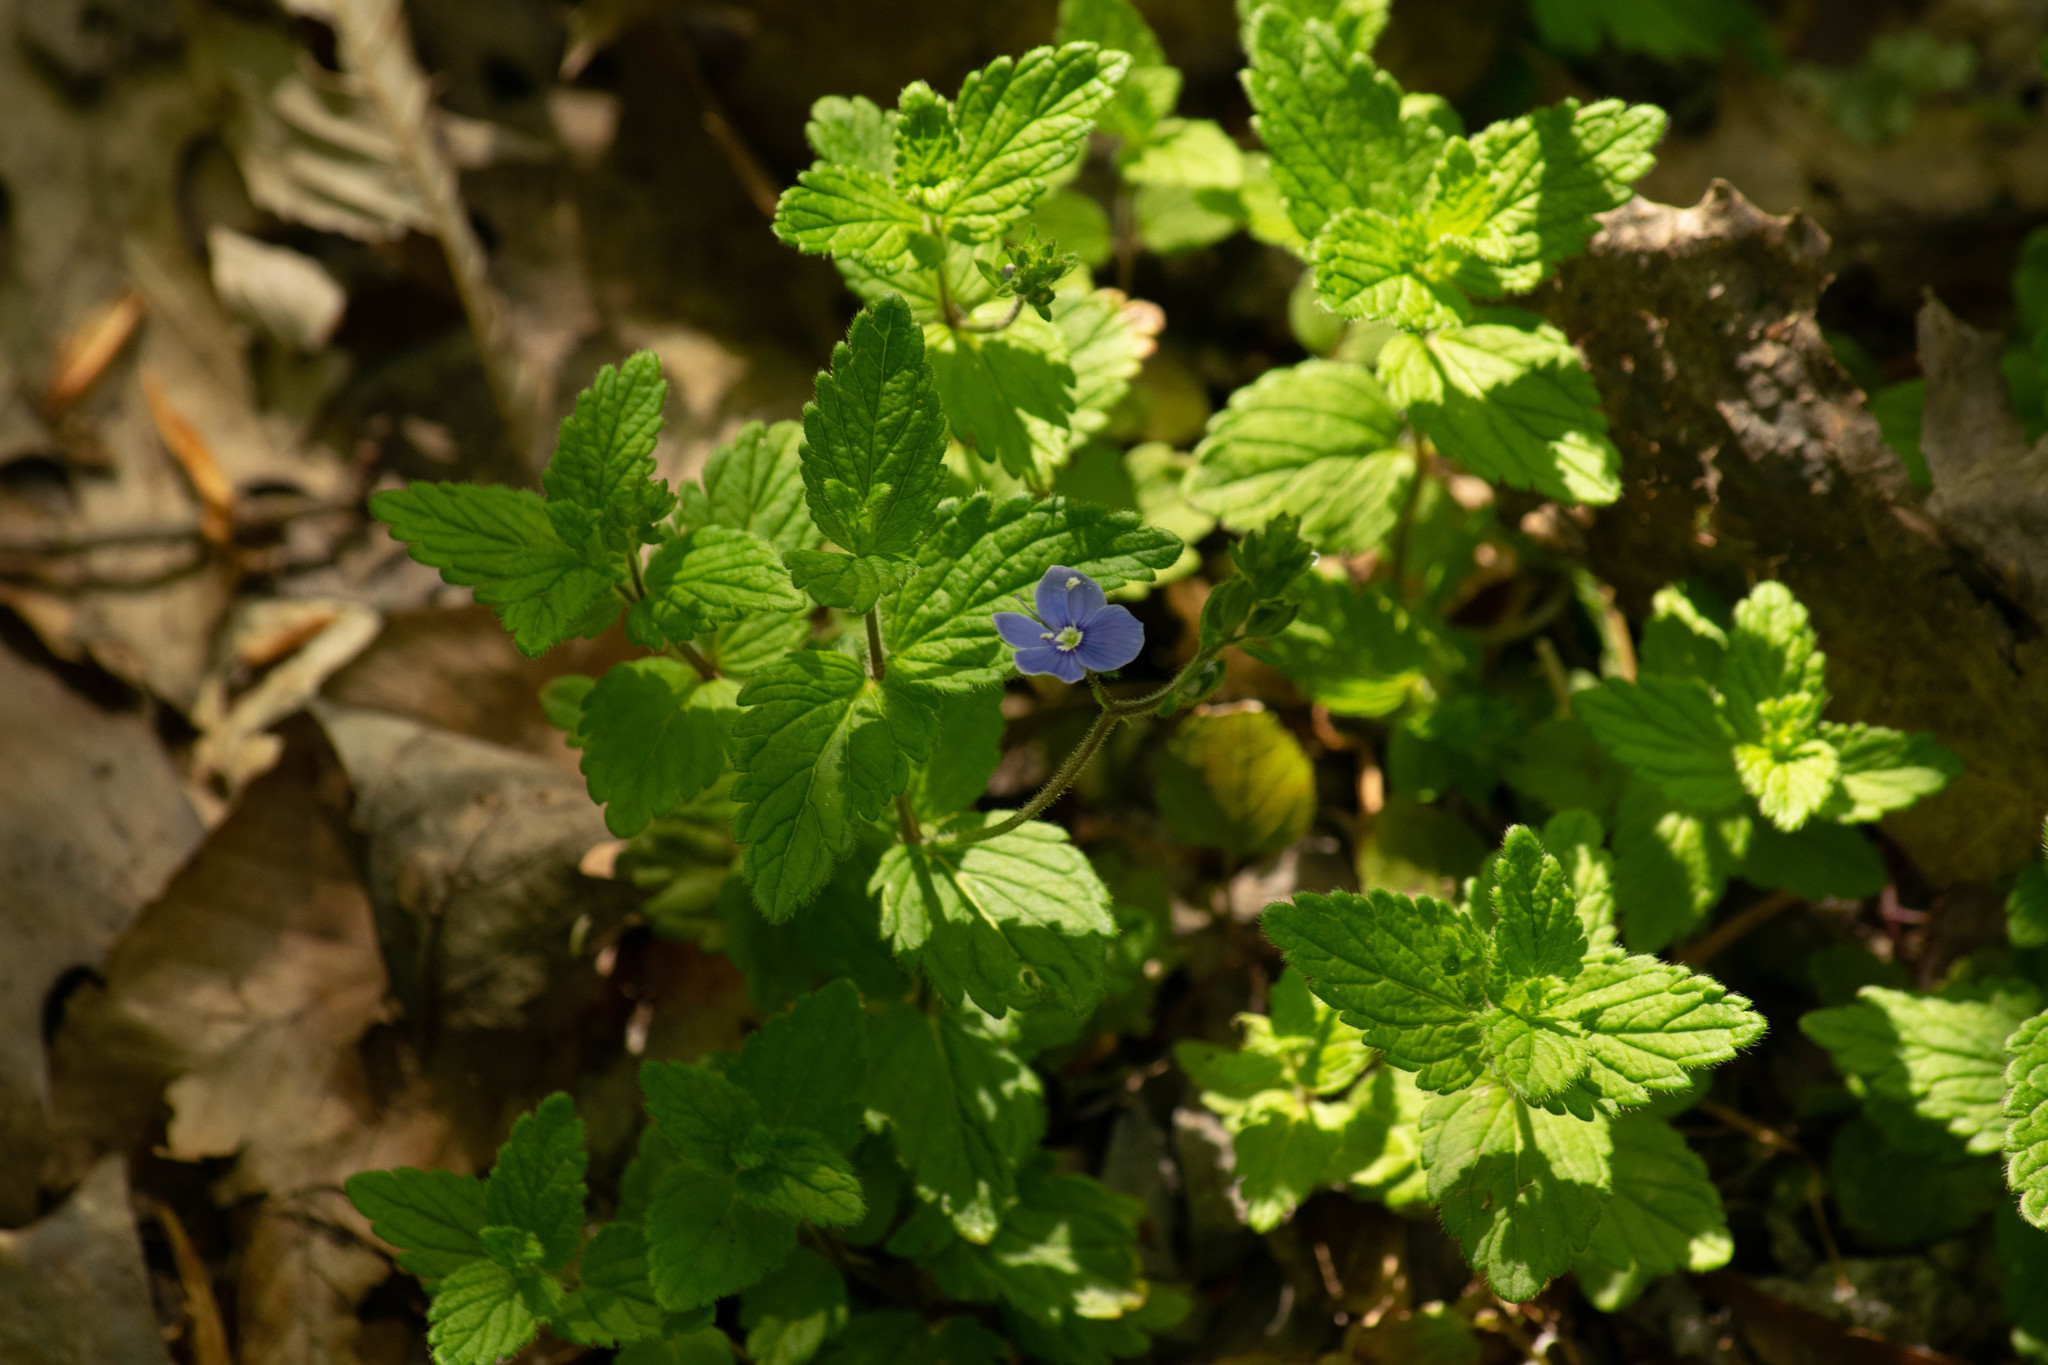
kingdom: Plantae
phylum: Tracheophyta
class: Magnoliopsida
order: Lamiales
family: Plantaginaceae
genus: Veronica
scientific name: Veronica chamaedrys
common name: Germander speedwell
